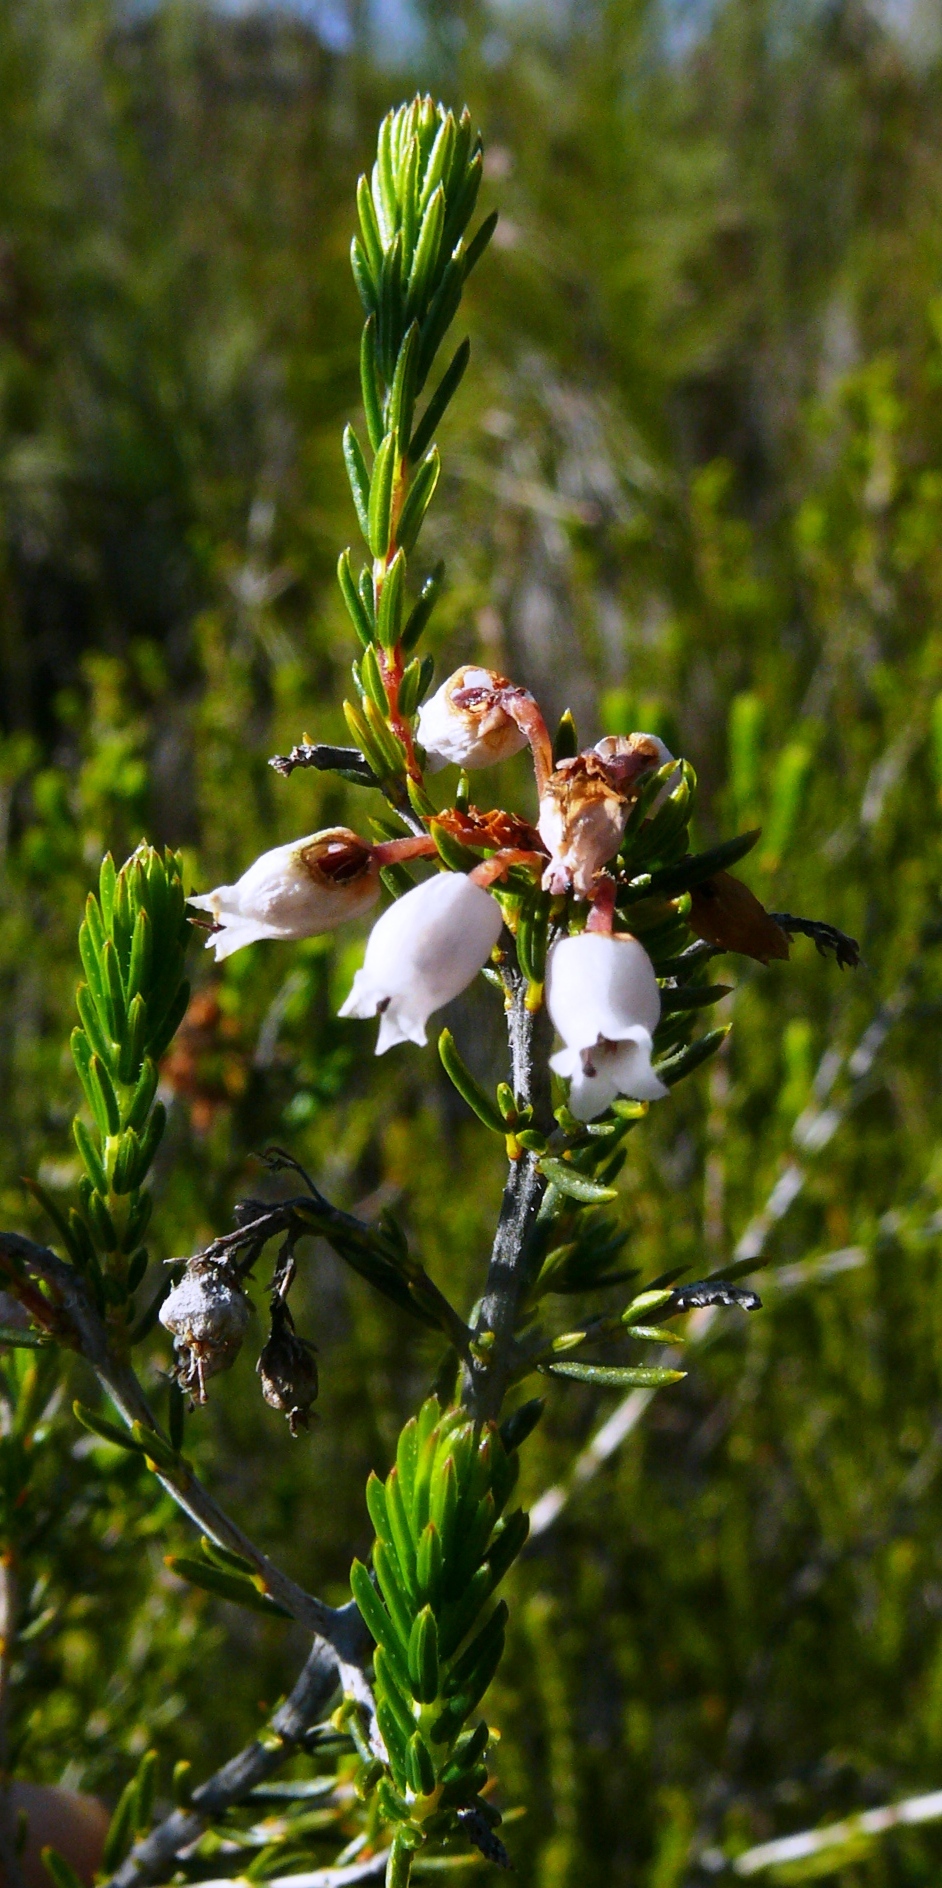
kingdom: Plantae
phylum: Tracheophyta
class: Magnoliopsida
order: Ericales
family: Ericaceae
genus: Erica
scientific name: Erica verecunda
